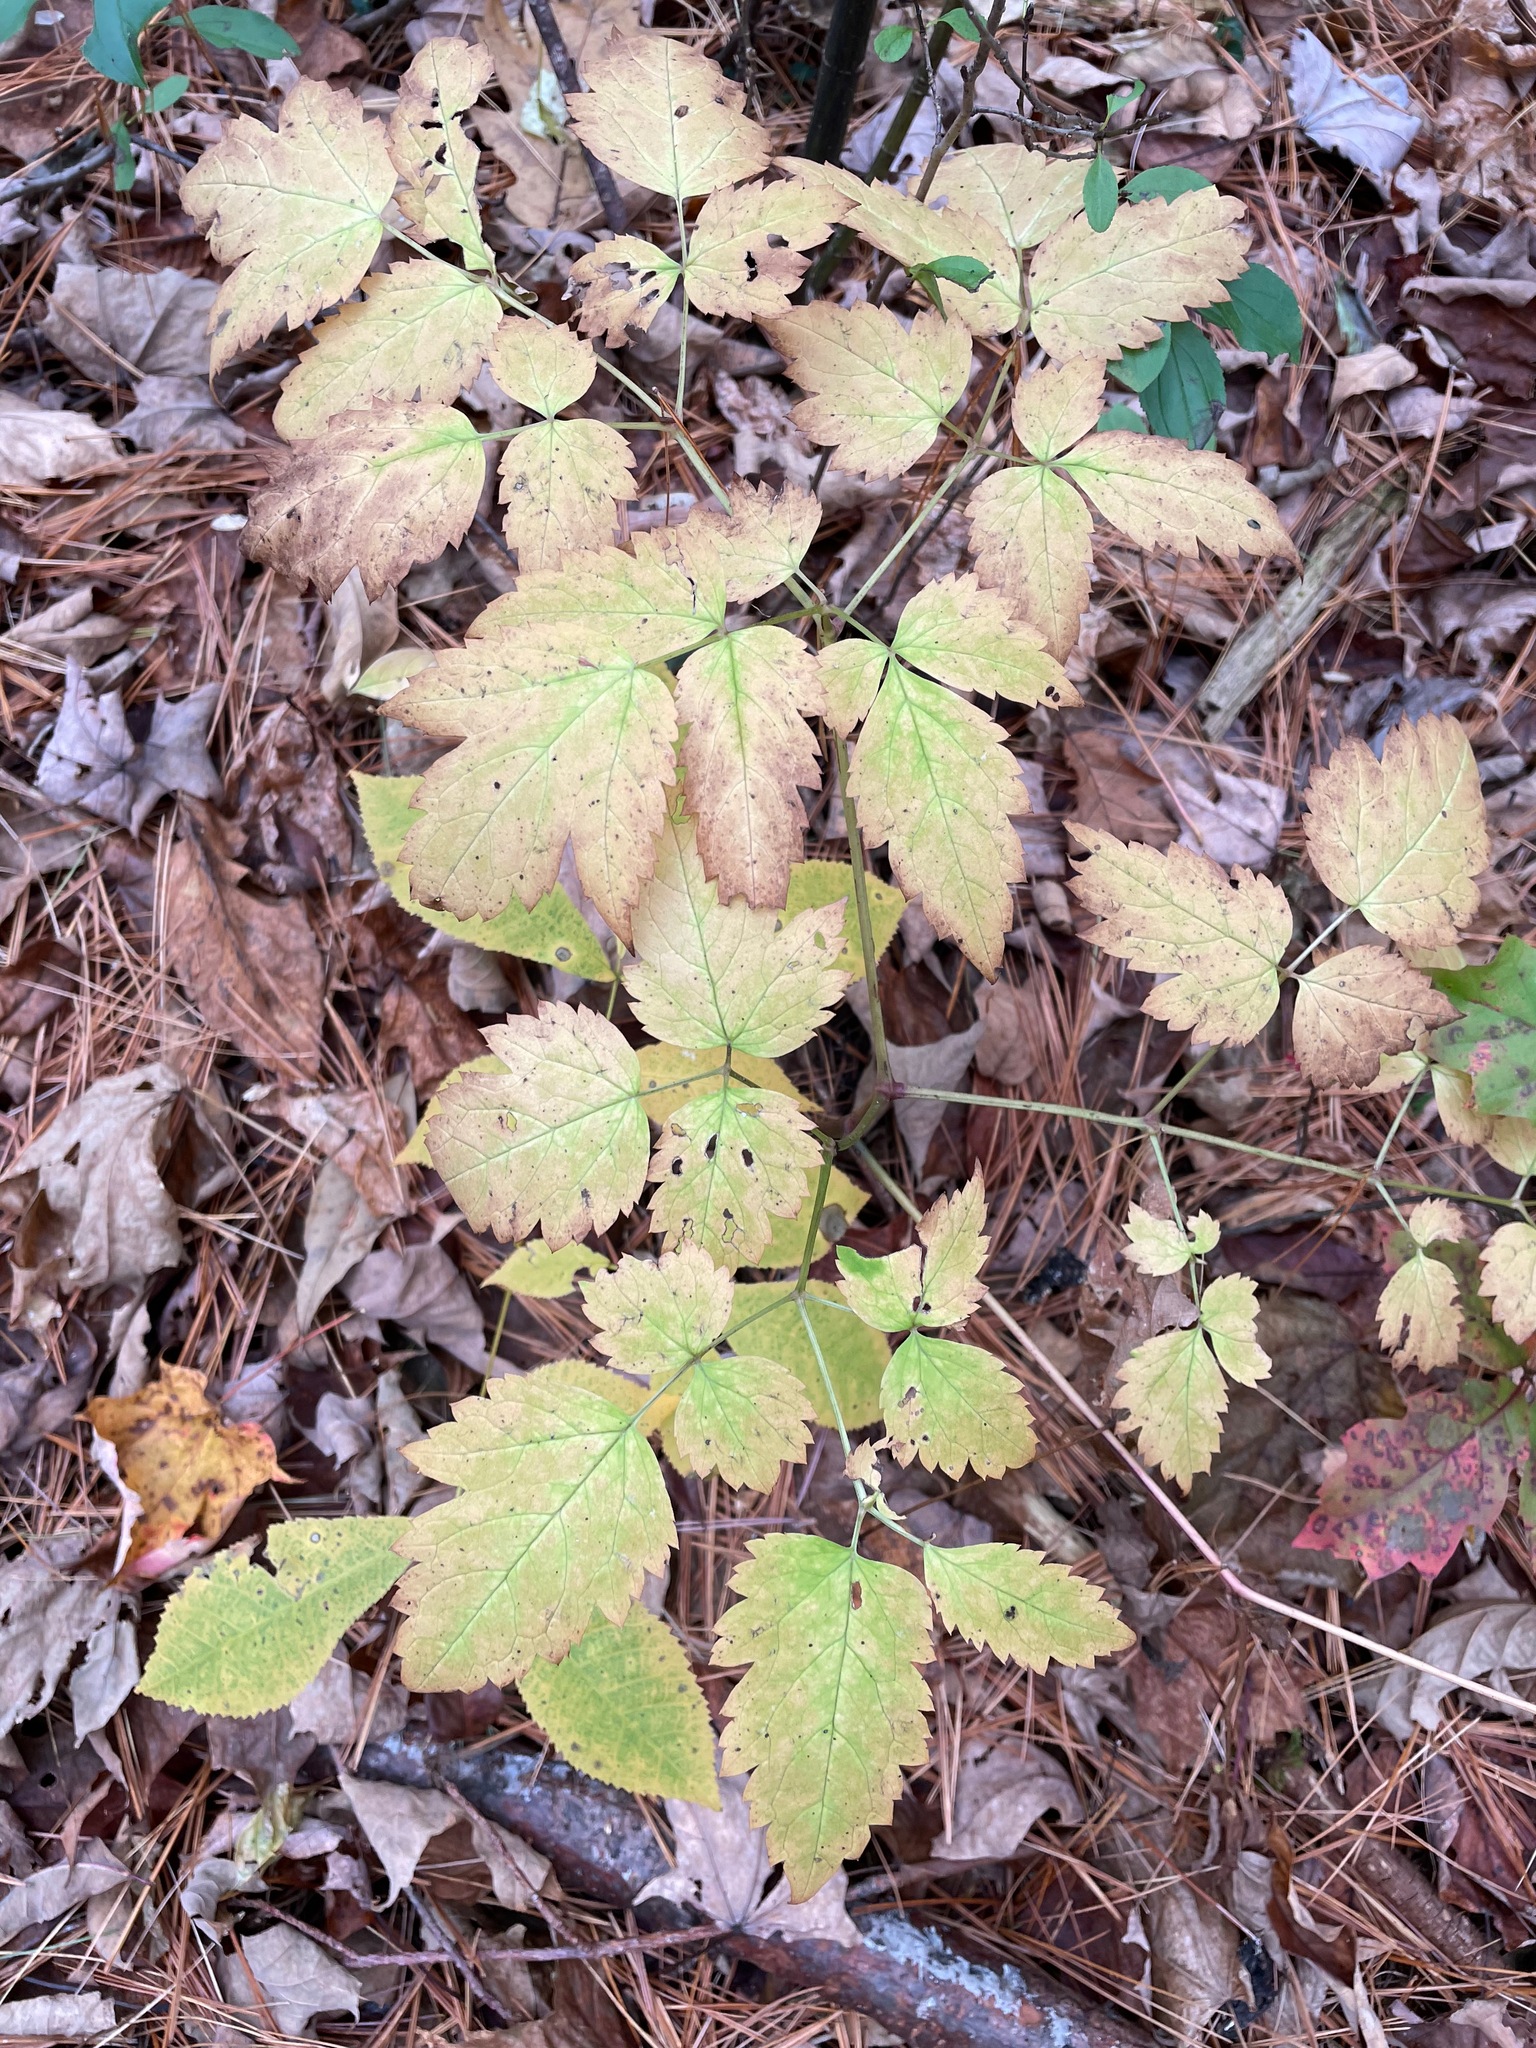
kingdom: Plantae
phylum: Tracheophyta
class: Magnoliopsida
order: Ranunculales
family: Ranunculaceae
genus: Actaea
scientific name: Actaea pachypoda
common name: Doll's-eyes
